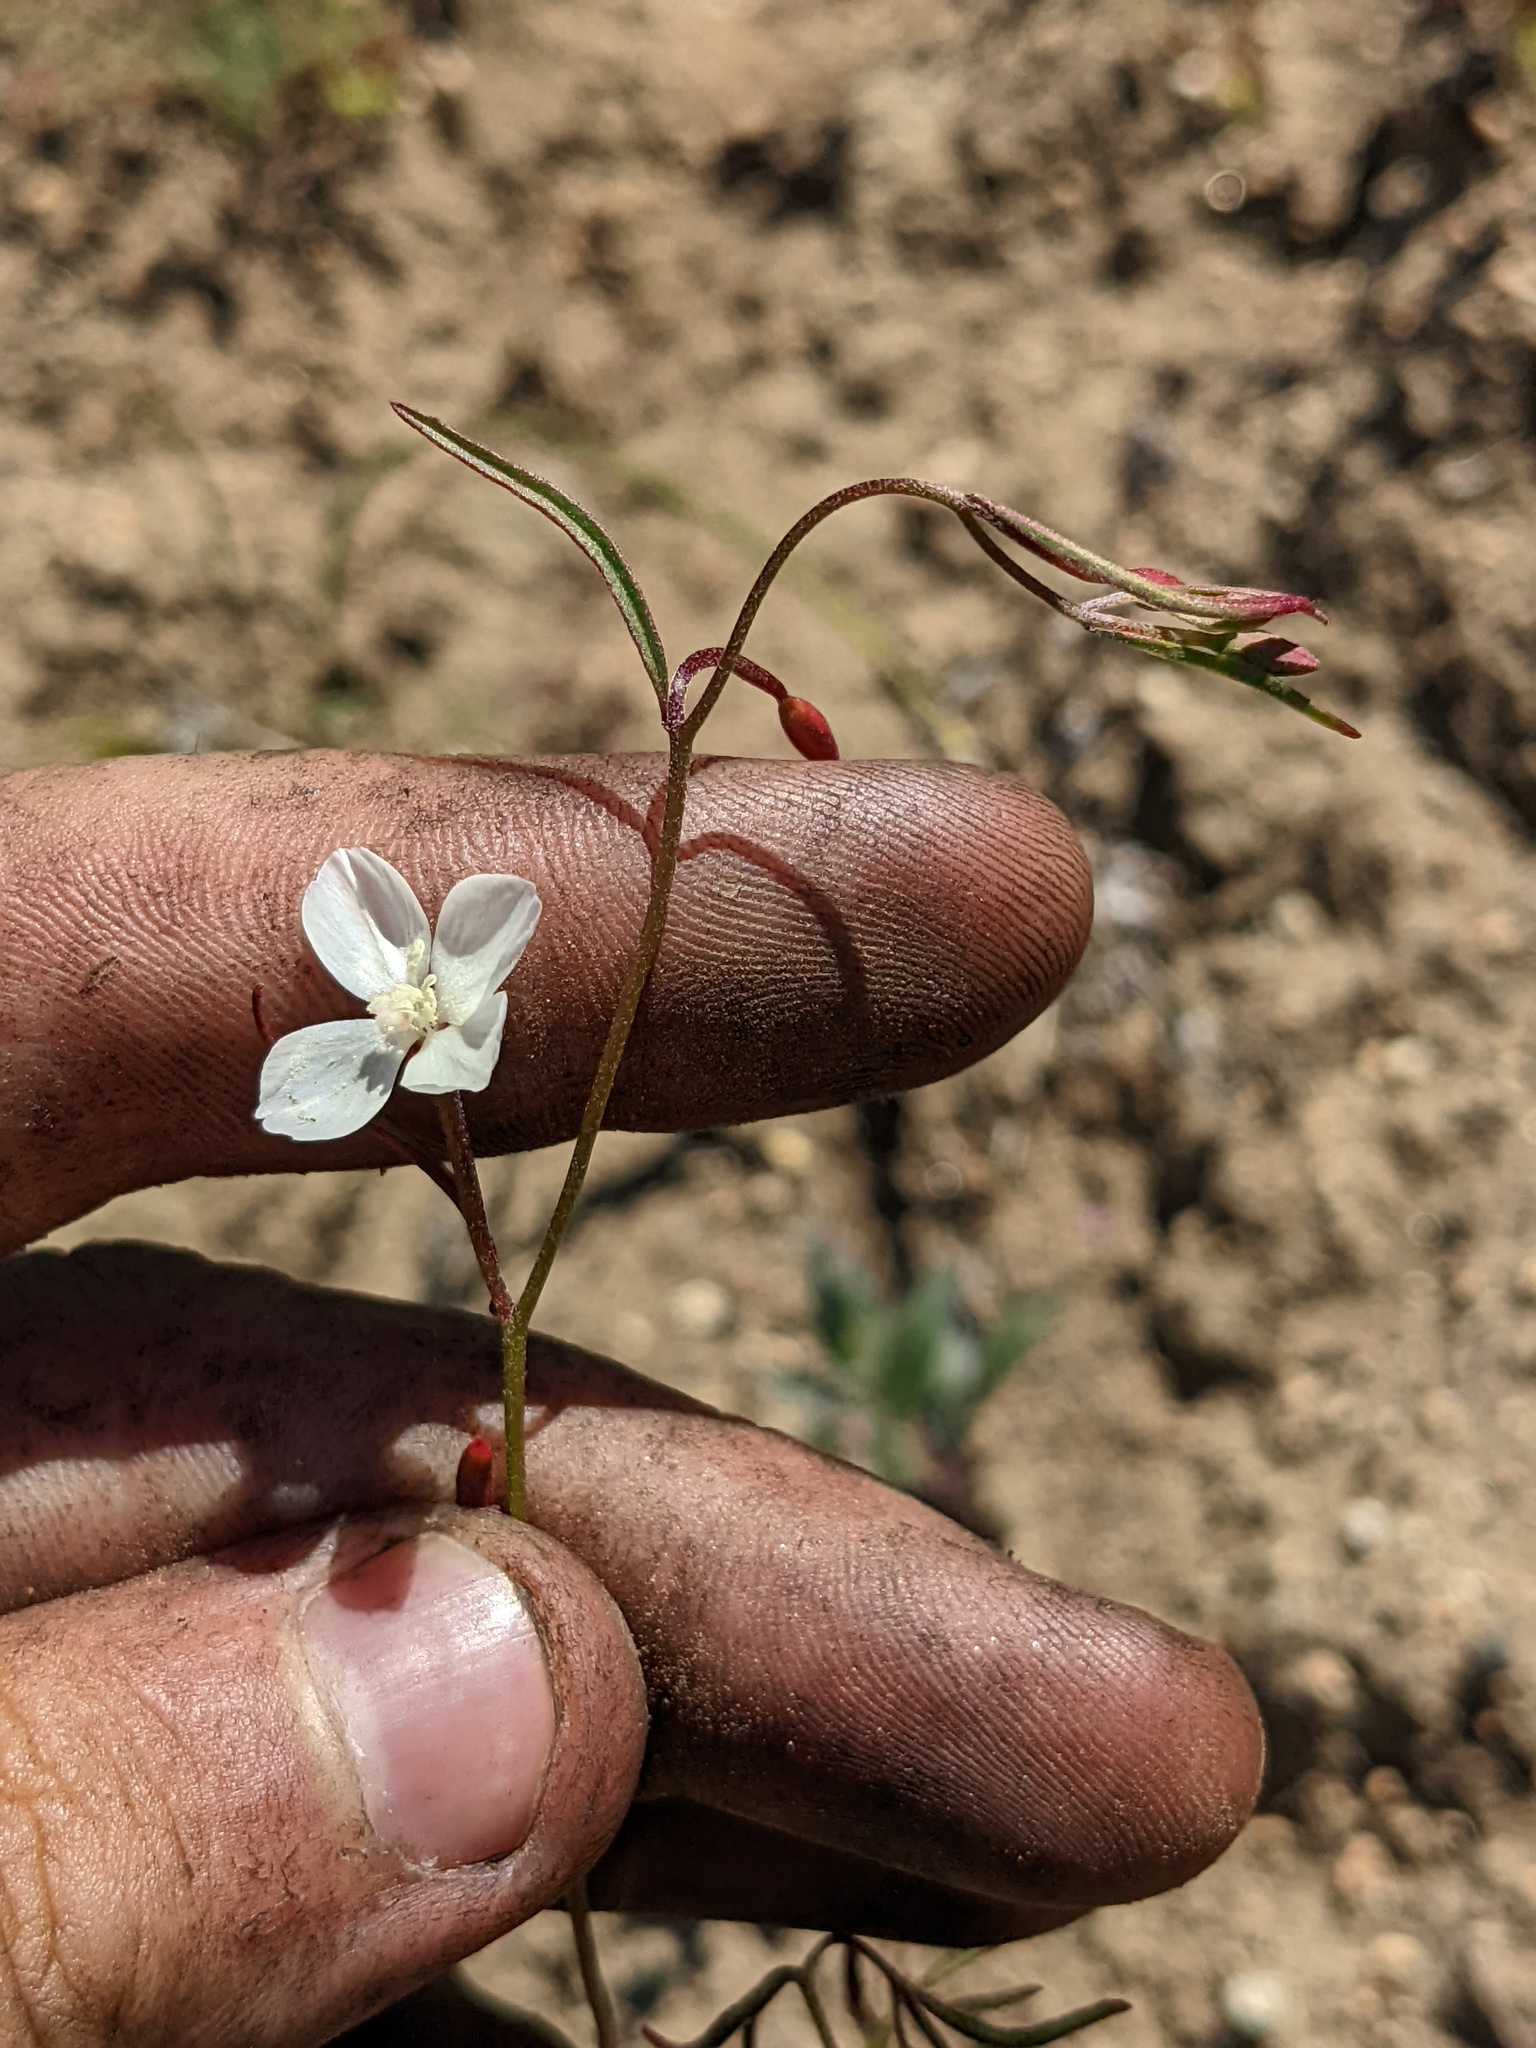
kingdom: Plantae
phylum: Tracheophyta
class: Magnoliopsida
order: Myrtales
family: Onagraceae
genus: Clarkia
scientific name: Clarkia epilobioides
